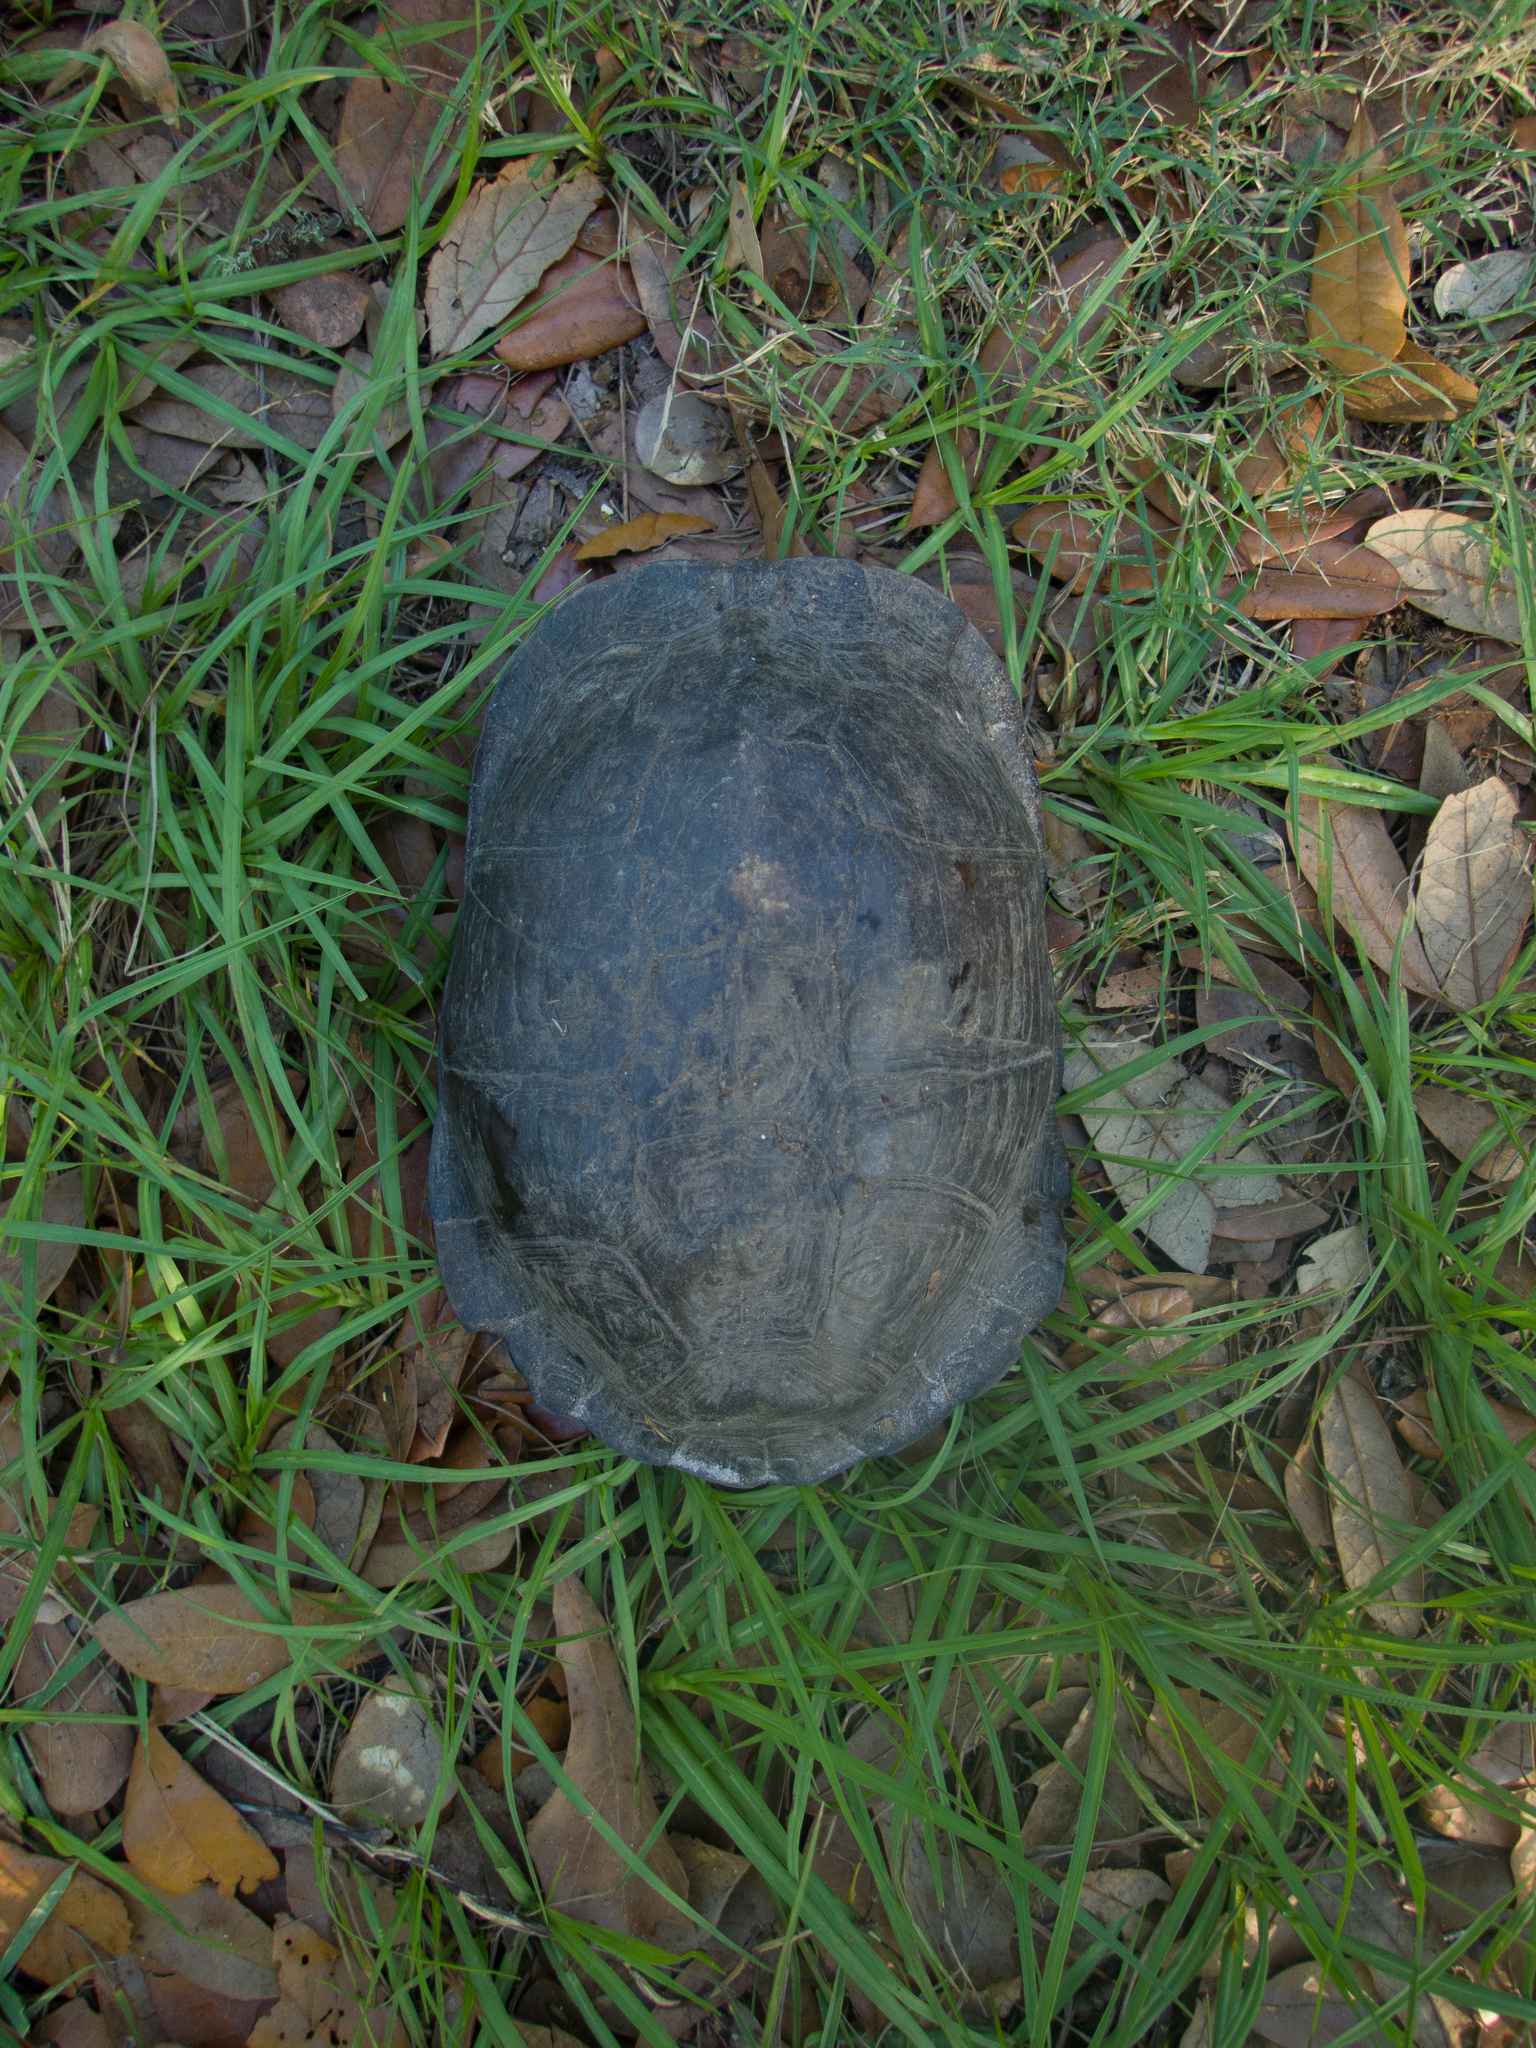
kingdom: Animalia
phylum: Chordata
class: Testudines
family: Emydidae
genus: Terrapene
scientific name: Terrapene carolina
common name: Common box turtle
